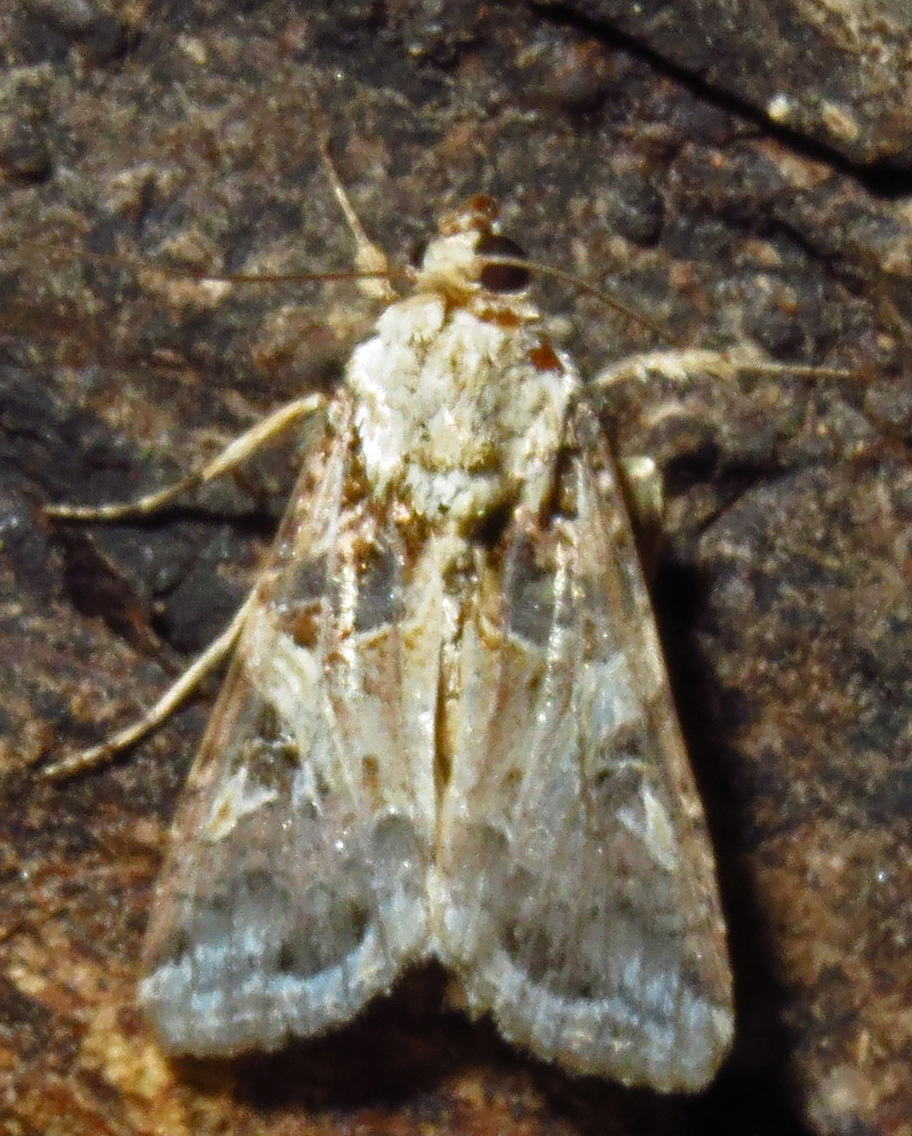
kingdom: Animalia
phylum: Arthropoda
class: Insecta
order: Lepidoptera
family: Noctuidae
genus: Spodoptera
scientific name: Spodoptera ornithogalli
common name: Yellow-striped armyworm
